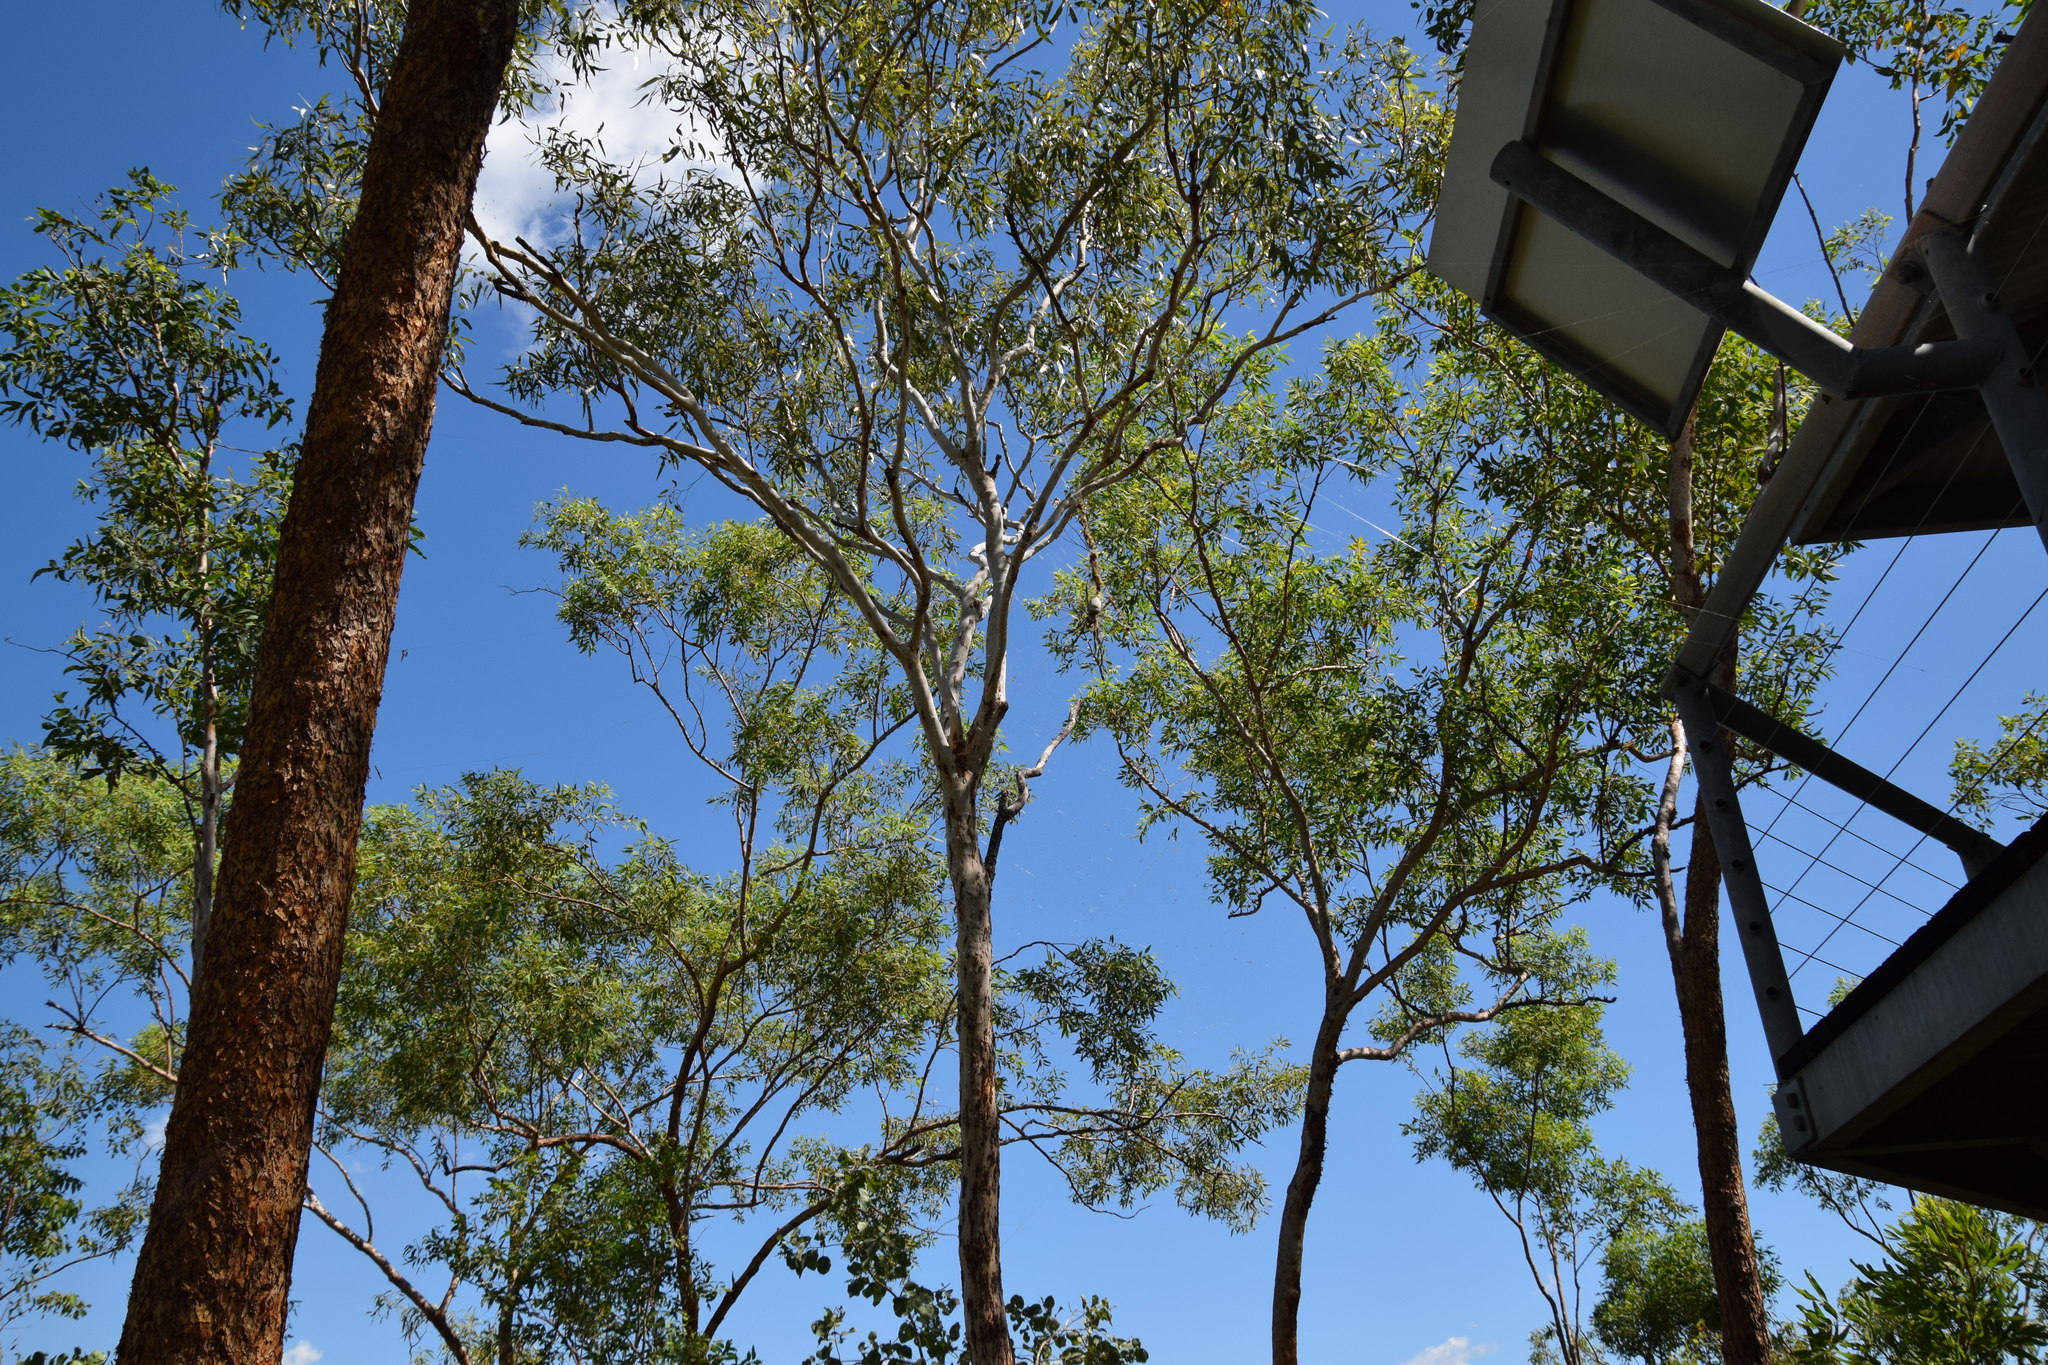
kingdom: Animalia
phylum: Arthropoda
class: Arachnida
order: Araneae
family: Araneidae
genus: Trichonephila
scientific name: Trichonephila edulis
